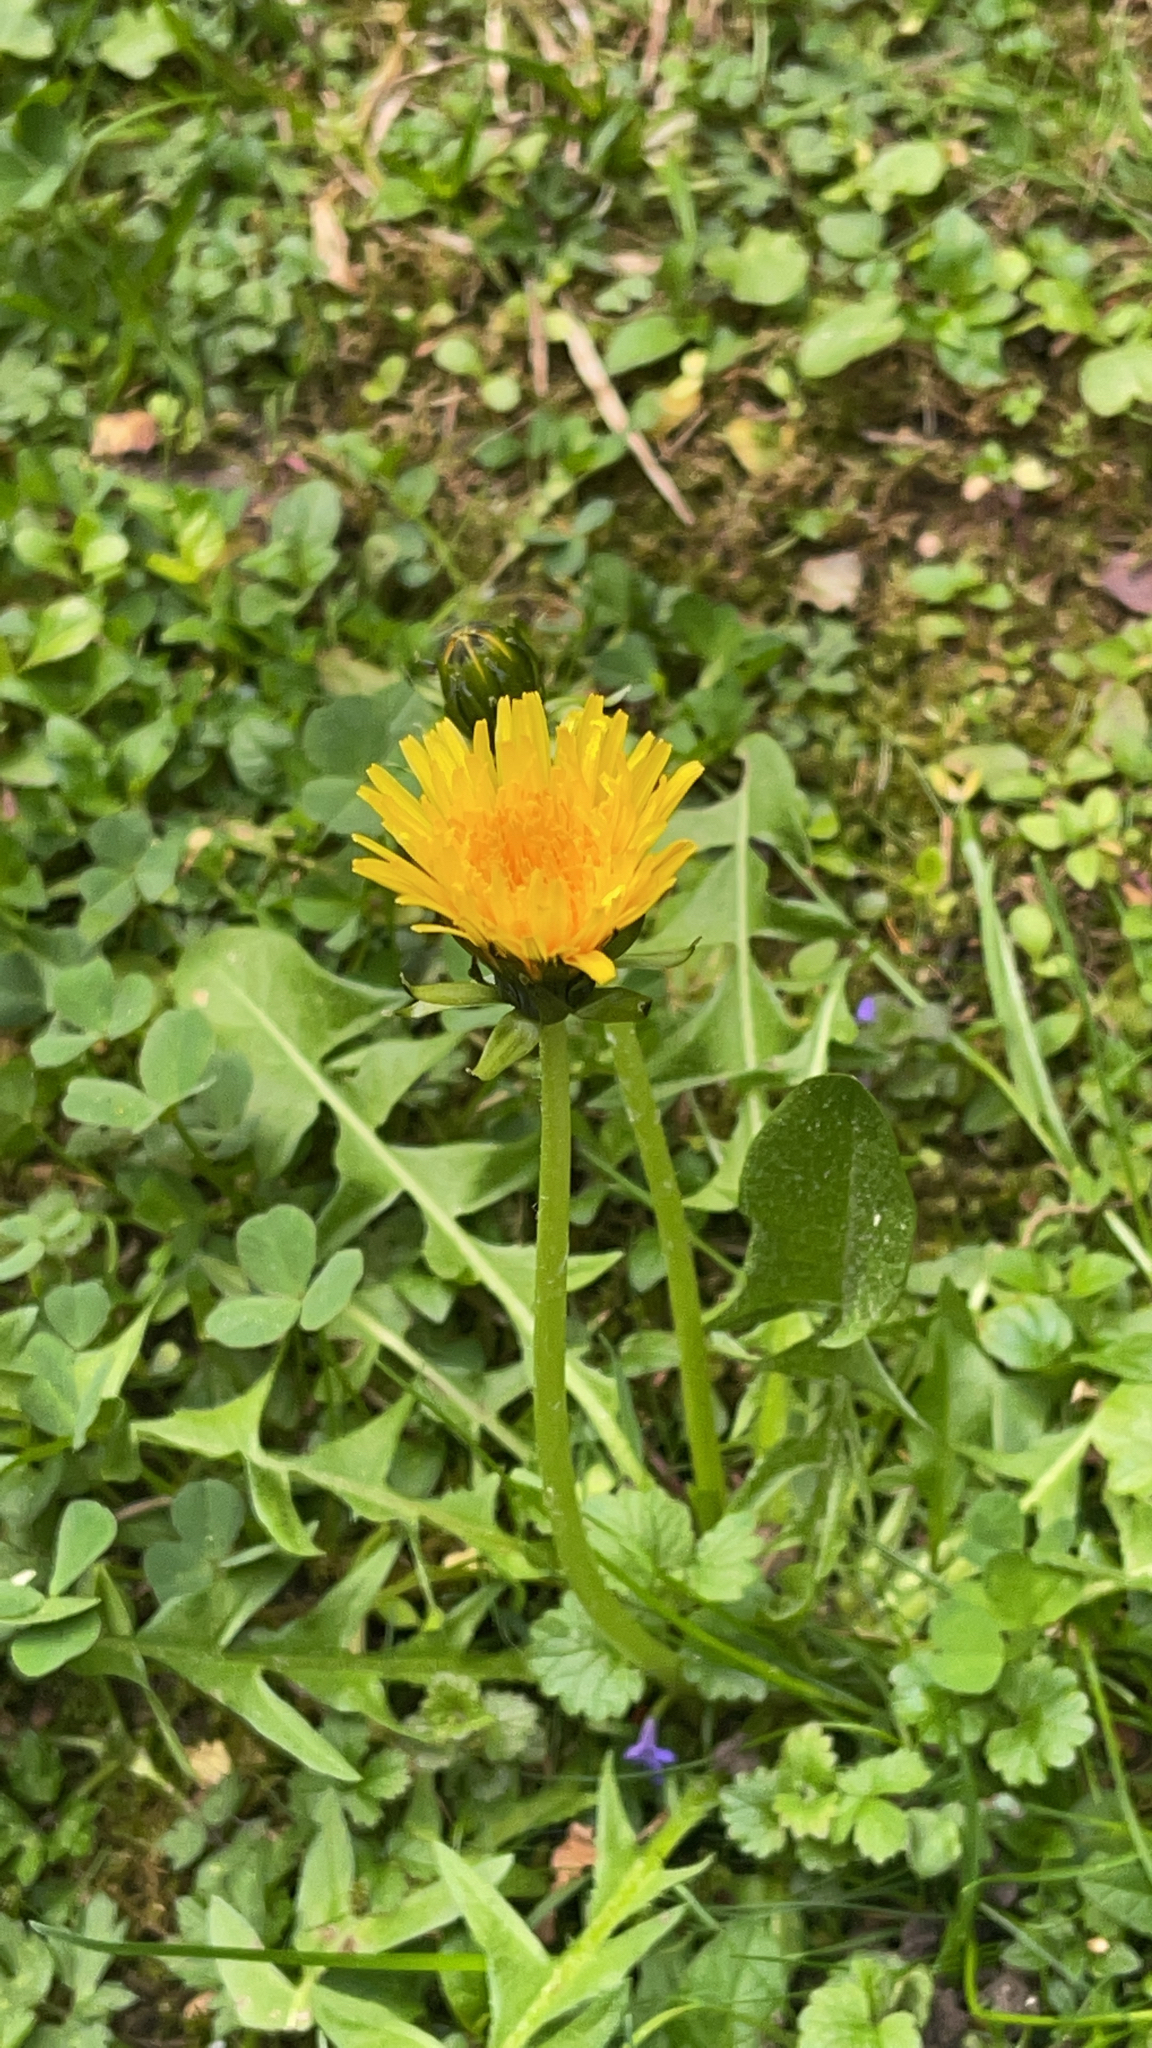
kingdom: Plantae
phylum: Tracheophyta
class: Magnoliopsida
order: Asterales
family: Asteraceae
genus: Taraxacum
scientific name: Taraxacum
